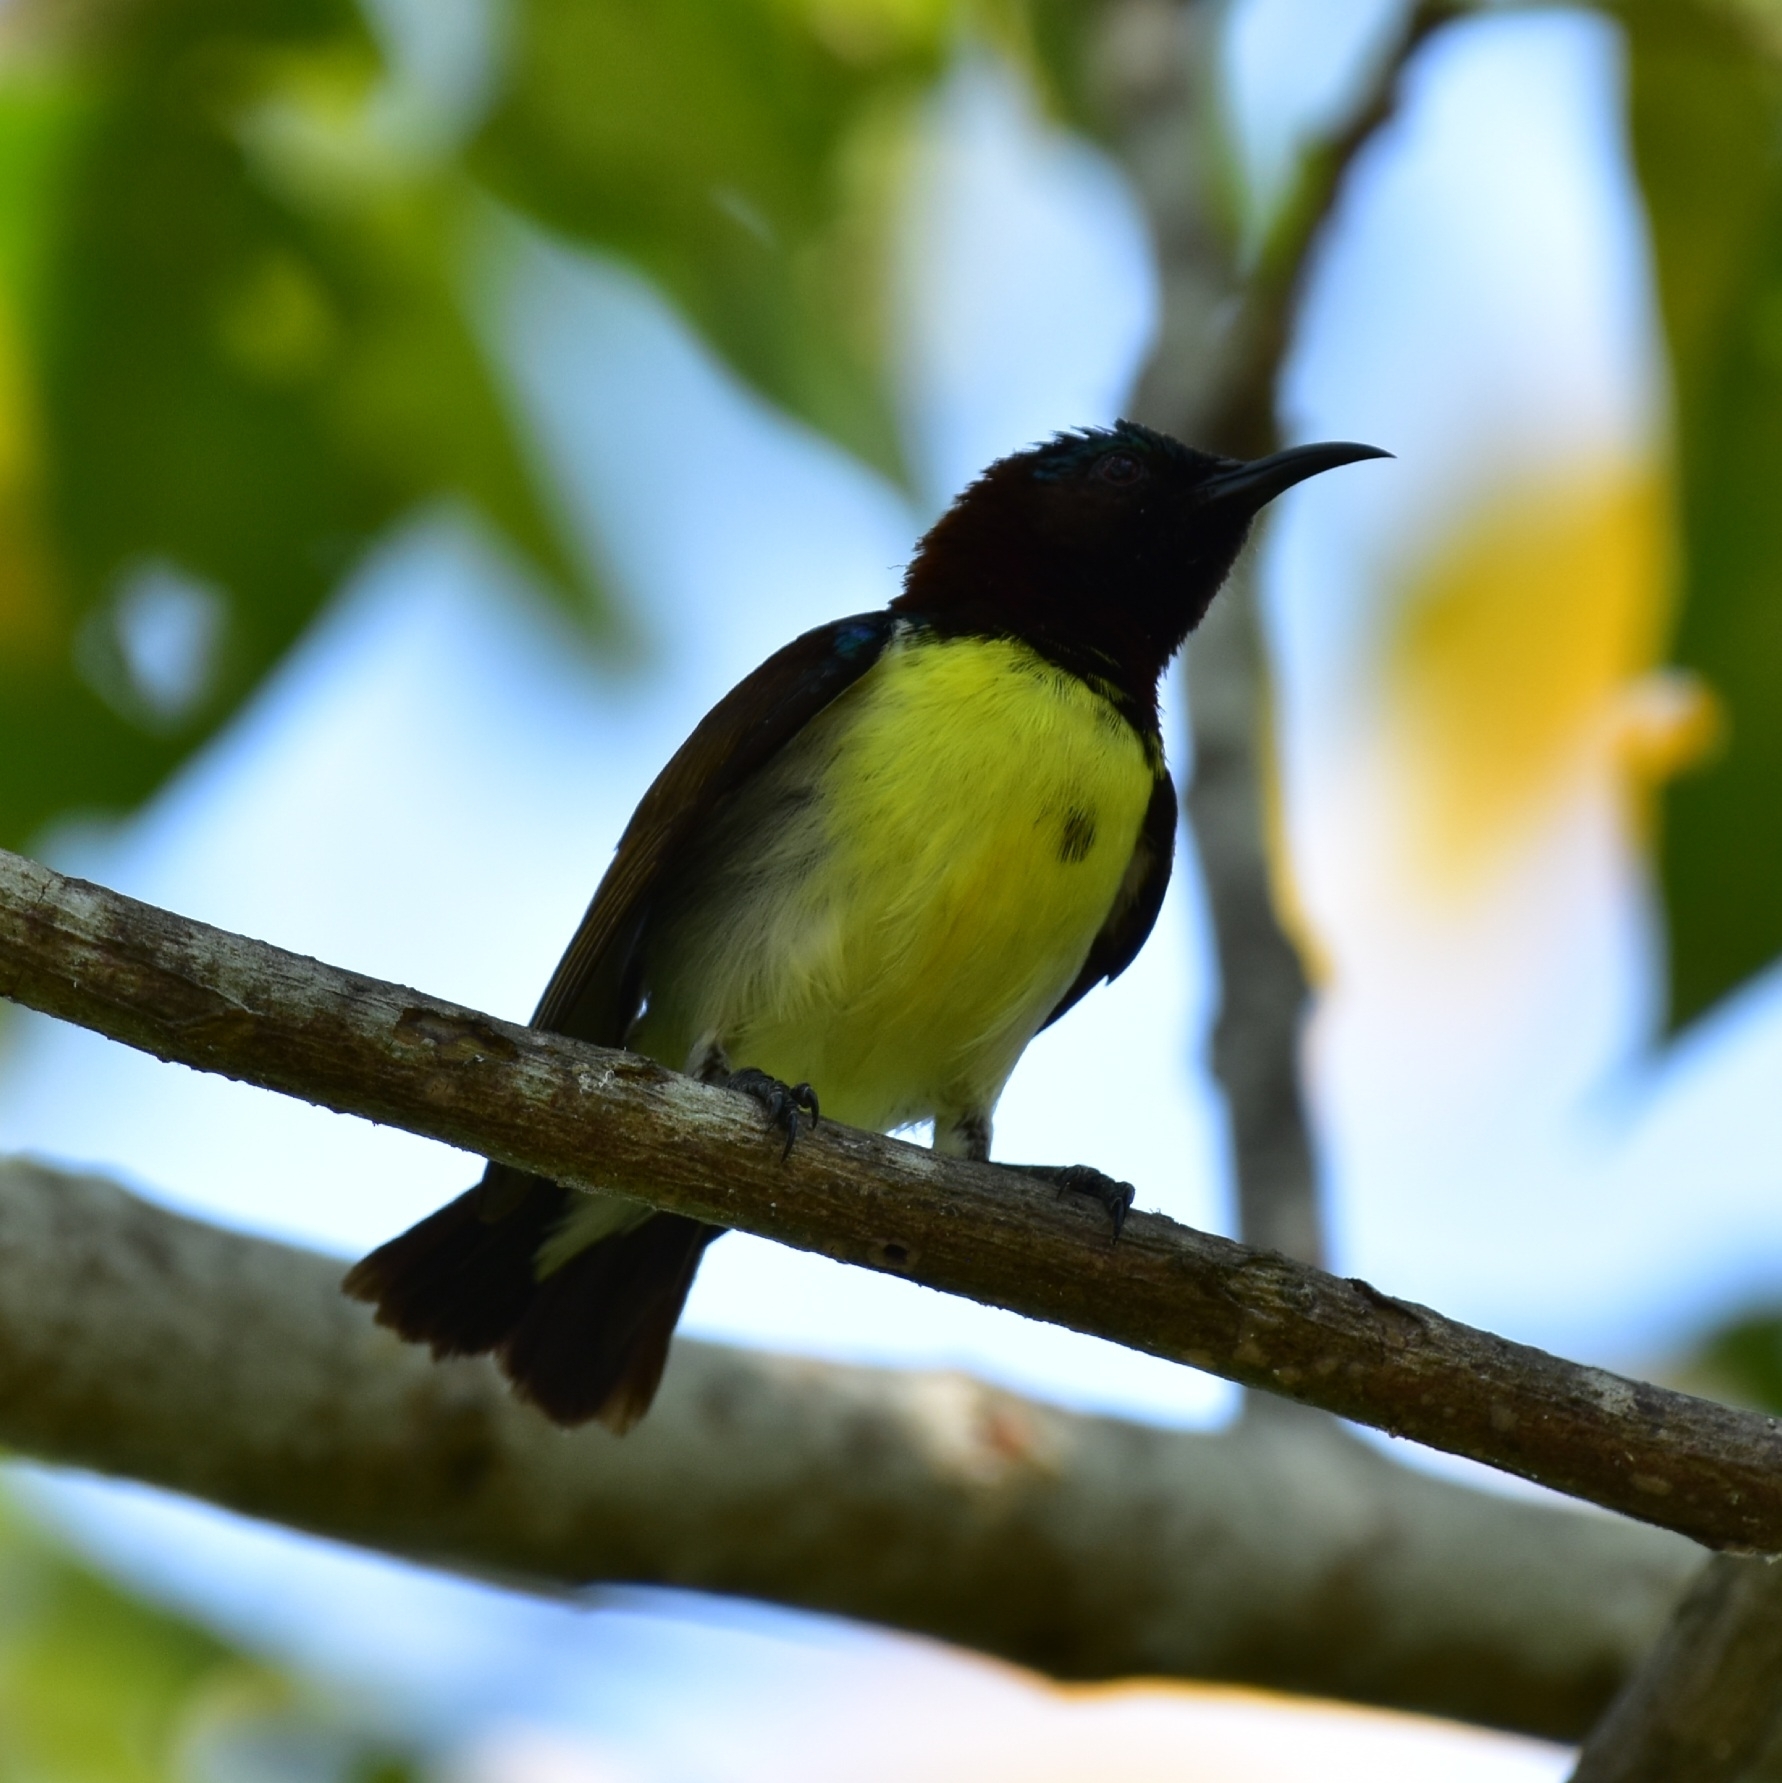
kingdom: Animalia
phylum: Chordata
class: Aves
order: Passeriformes
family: Nectariniidae
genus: Leptocoma
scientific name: Leptocoma zeylonica
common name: Purple-rumped sunbird
